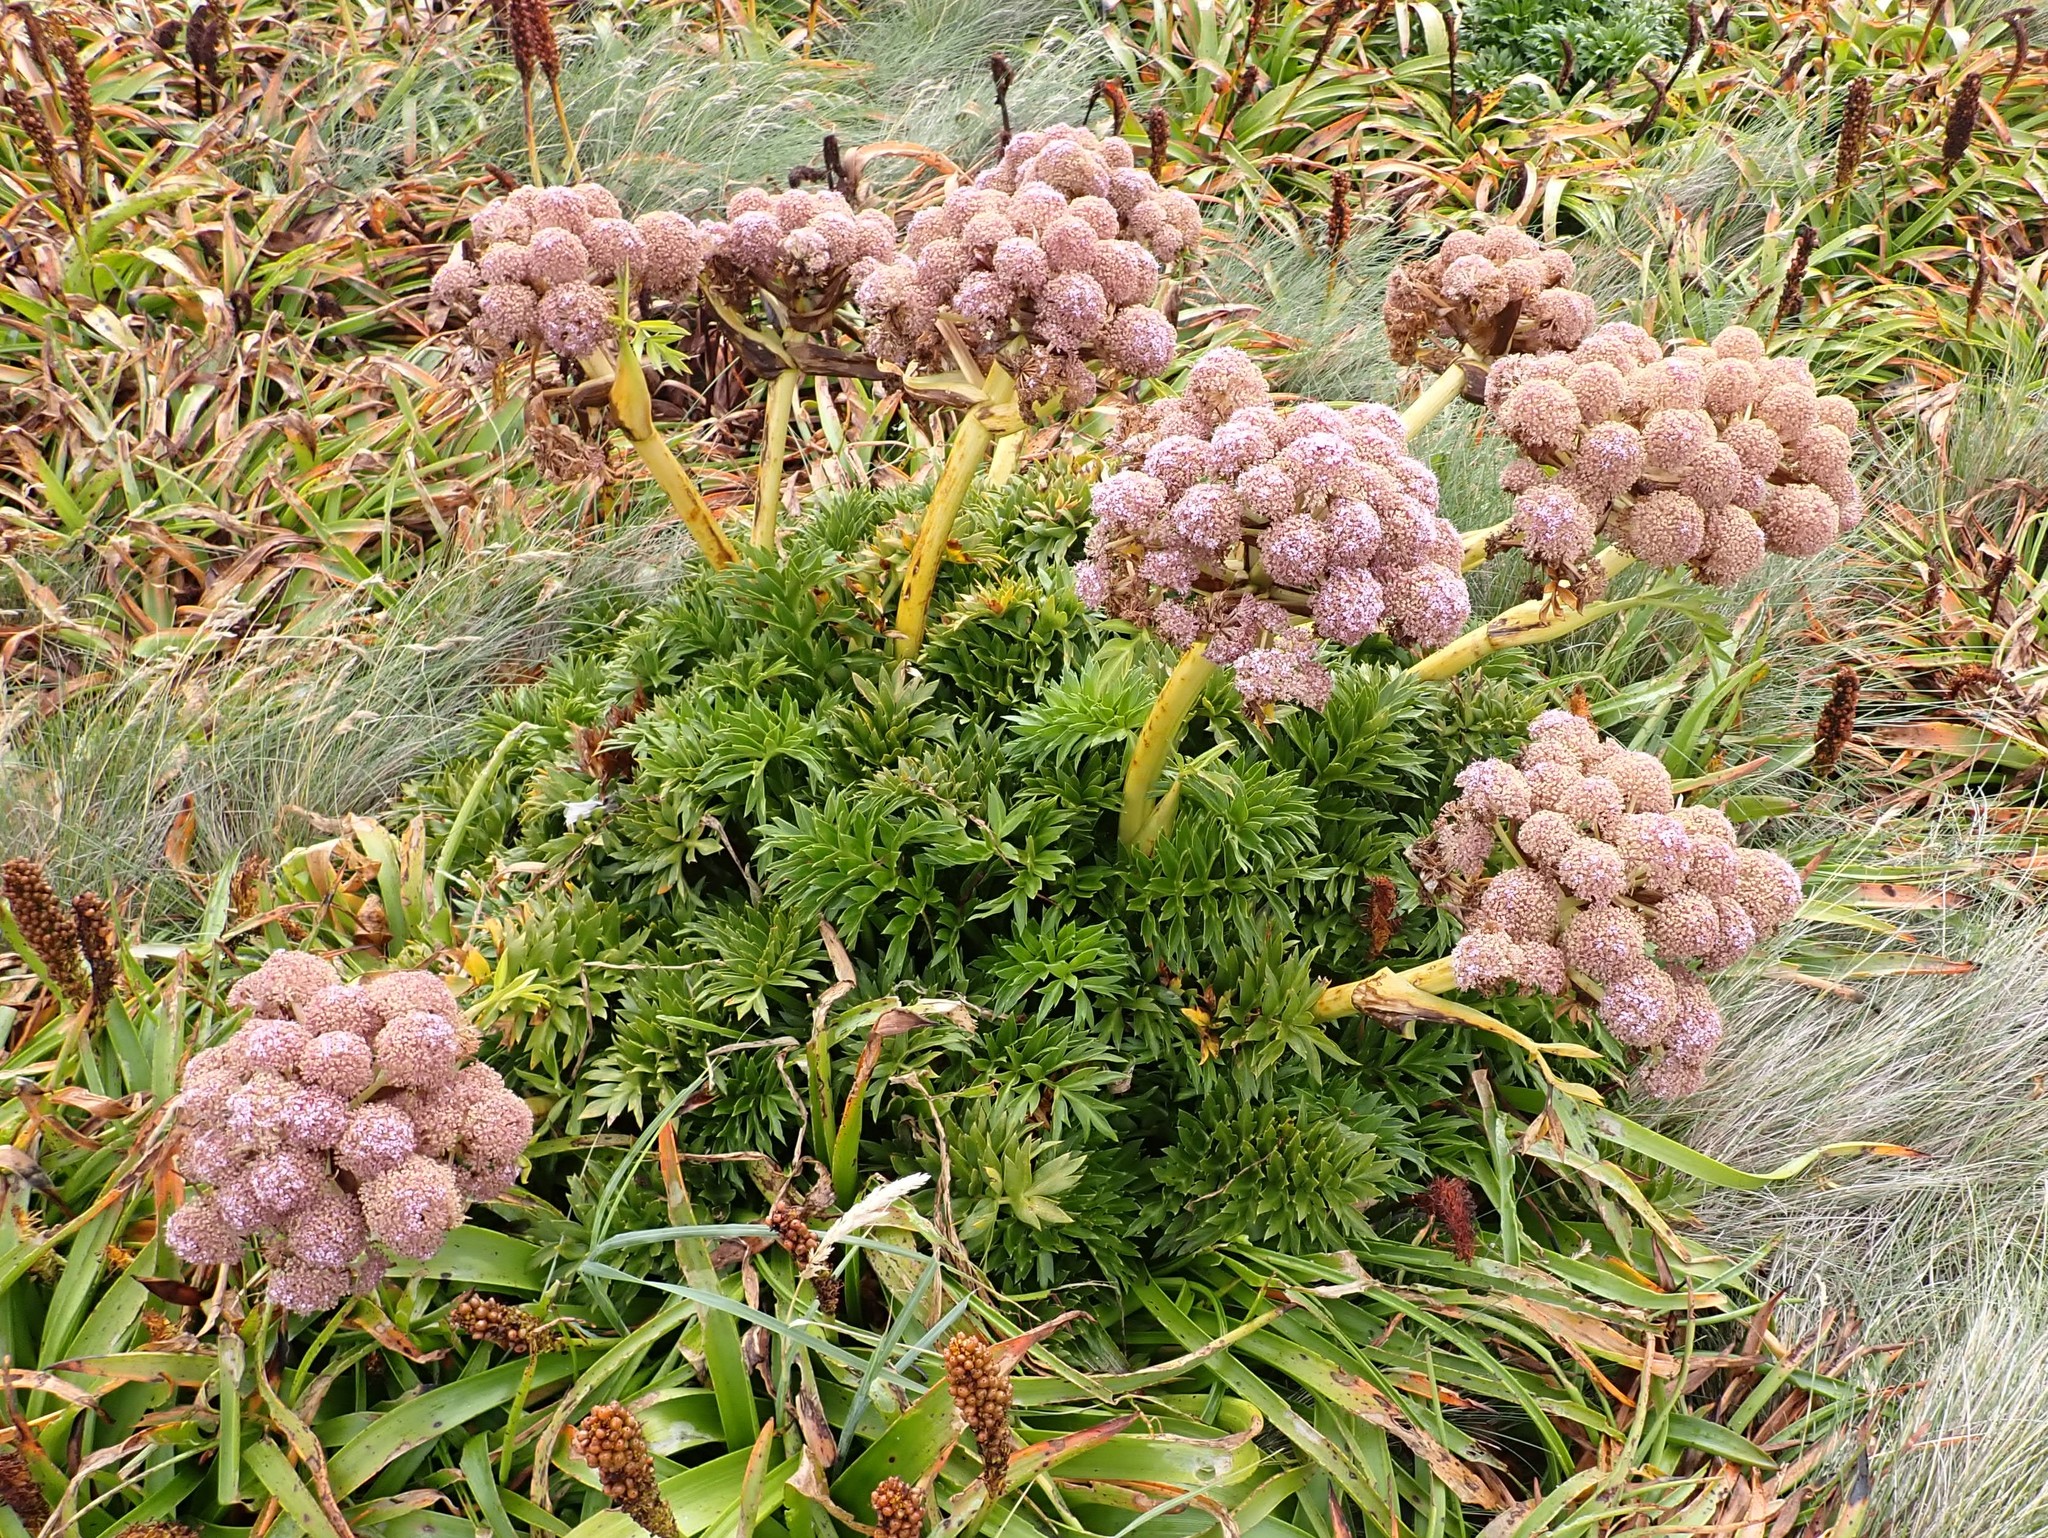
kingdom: Plantae
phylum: Tracheophyta
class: Magnoliopsida
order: Apiales
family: Apiaceae
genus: Anisotome
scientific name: Anisotome latifolia
